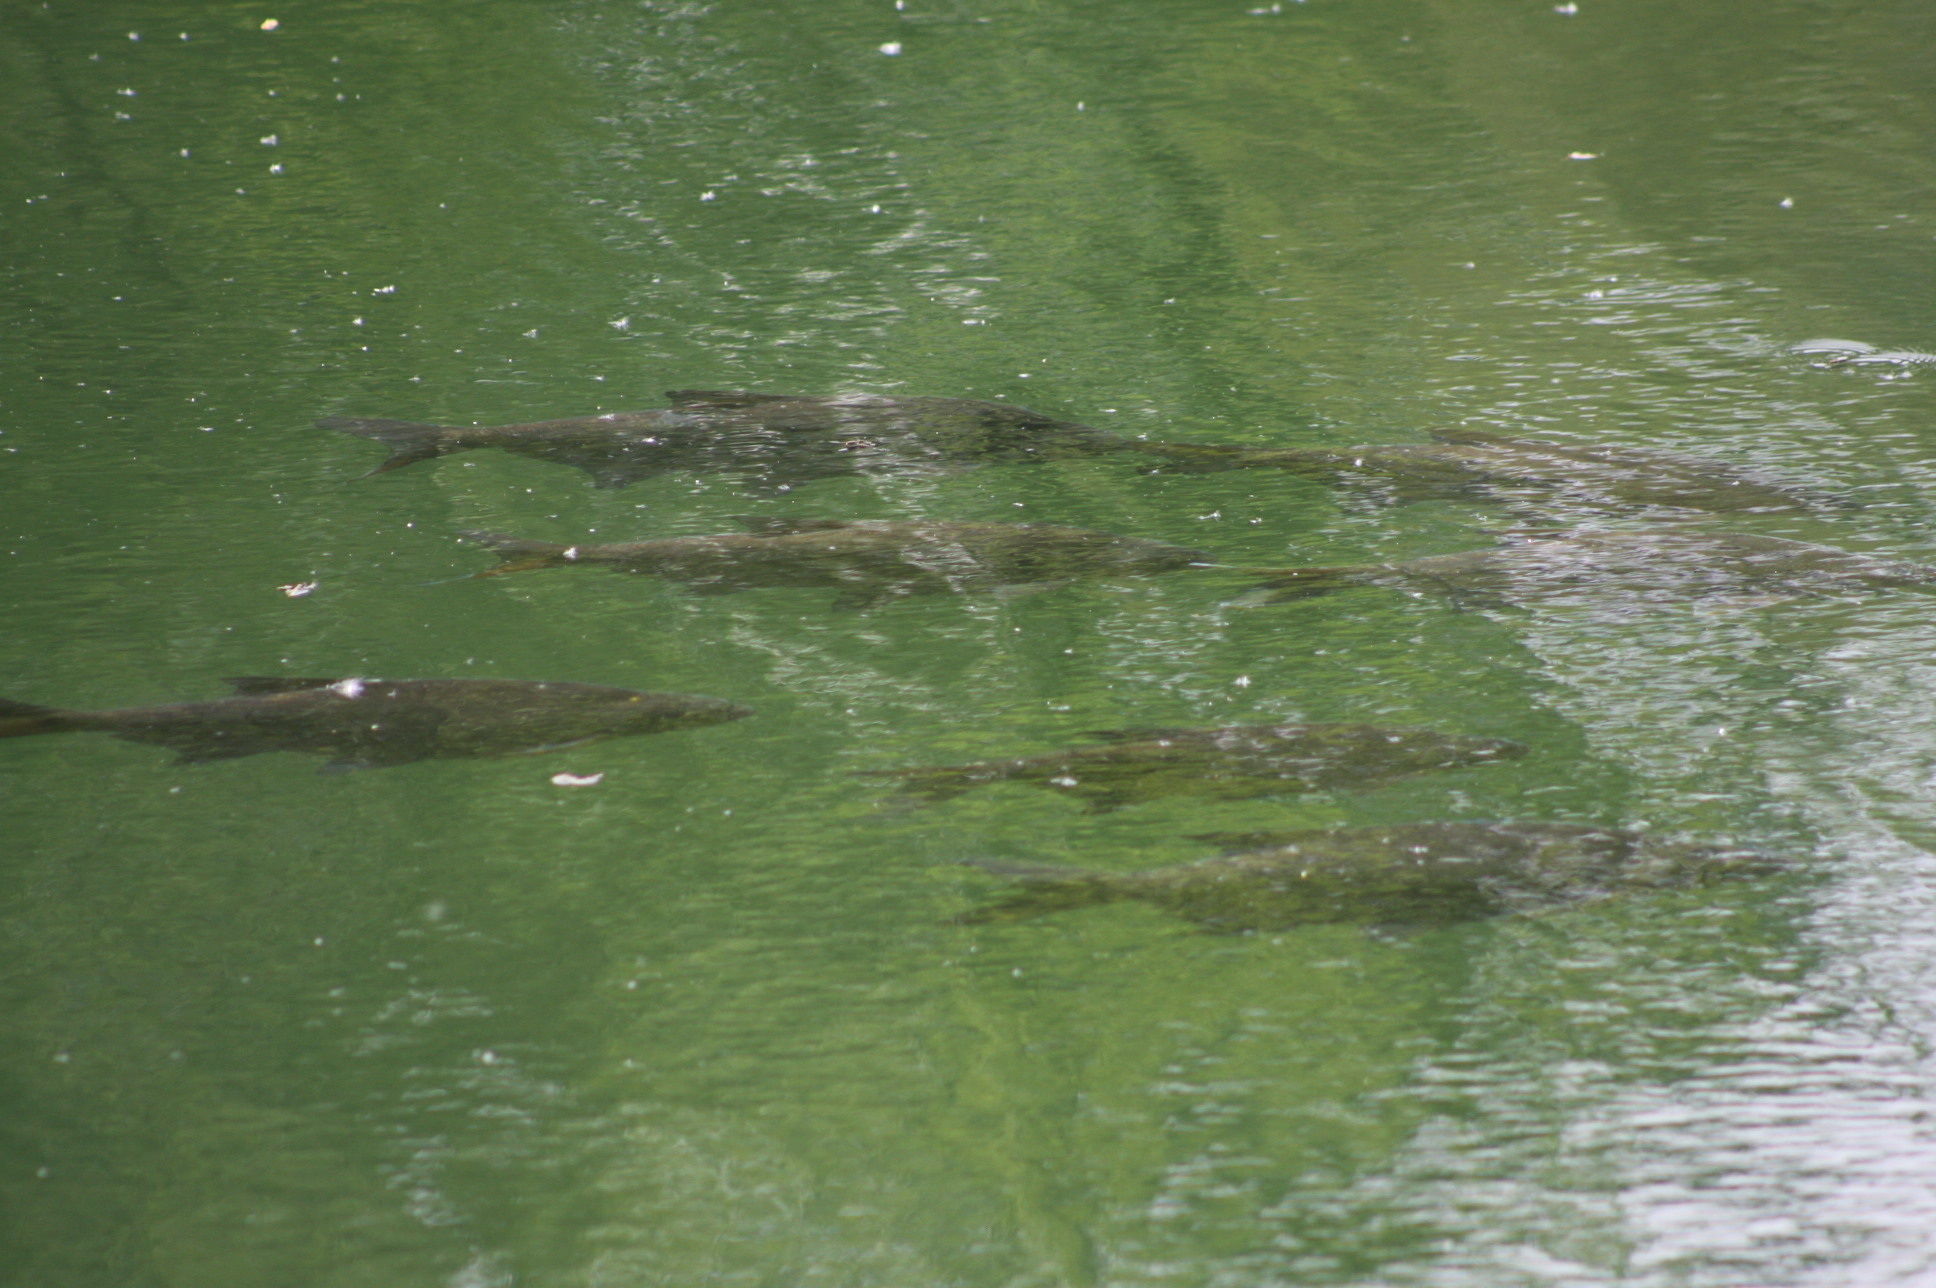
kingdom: Animalia
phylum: Chordata
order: Cypriniformes
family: Cyprinidae
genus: Abramis
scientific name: Abramis brama
